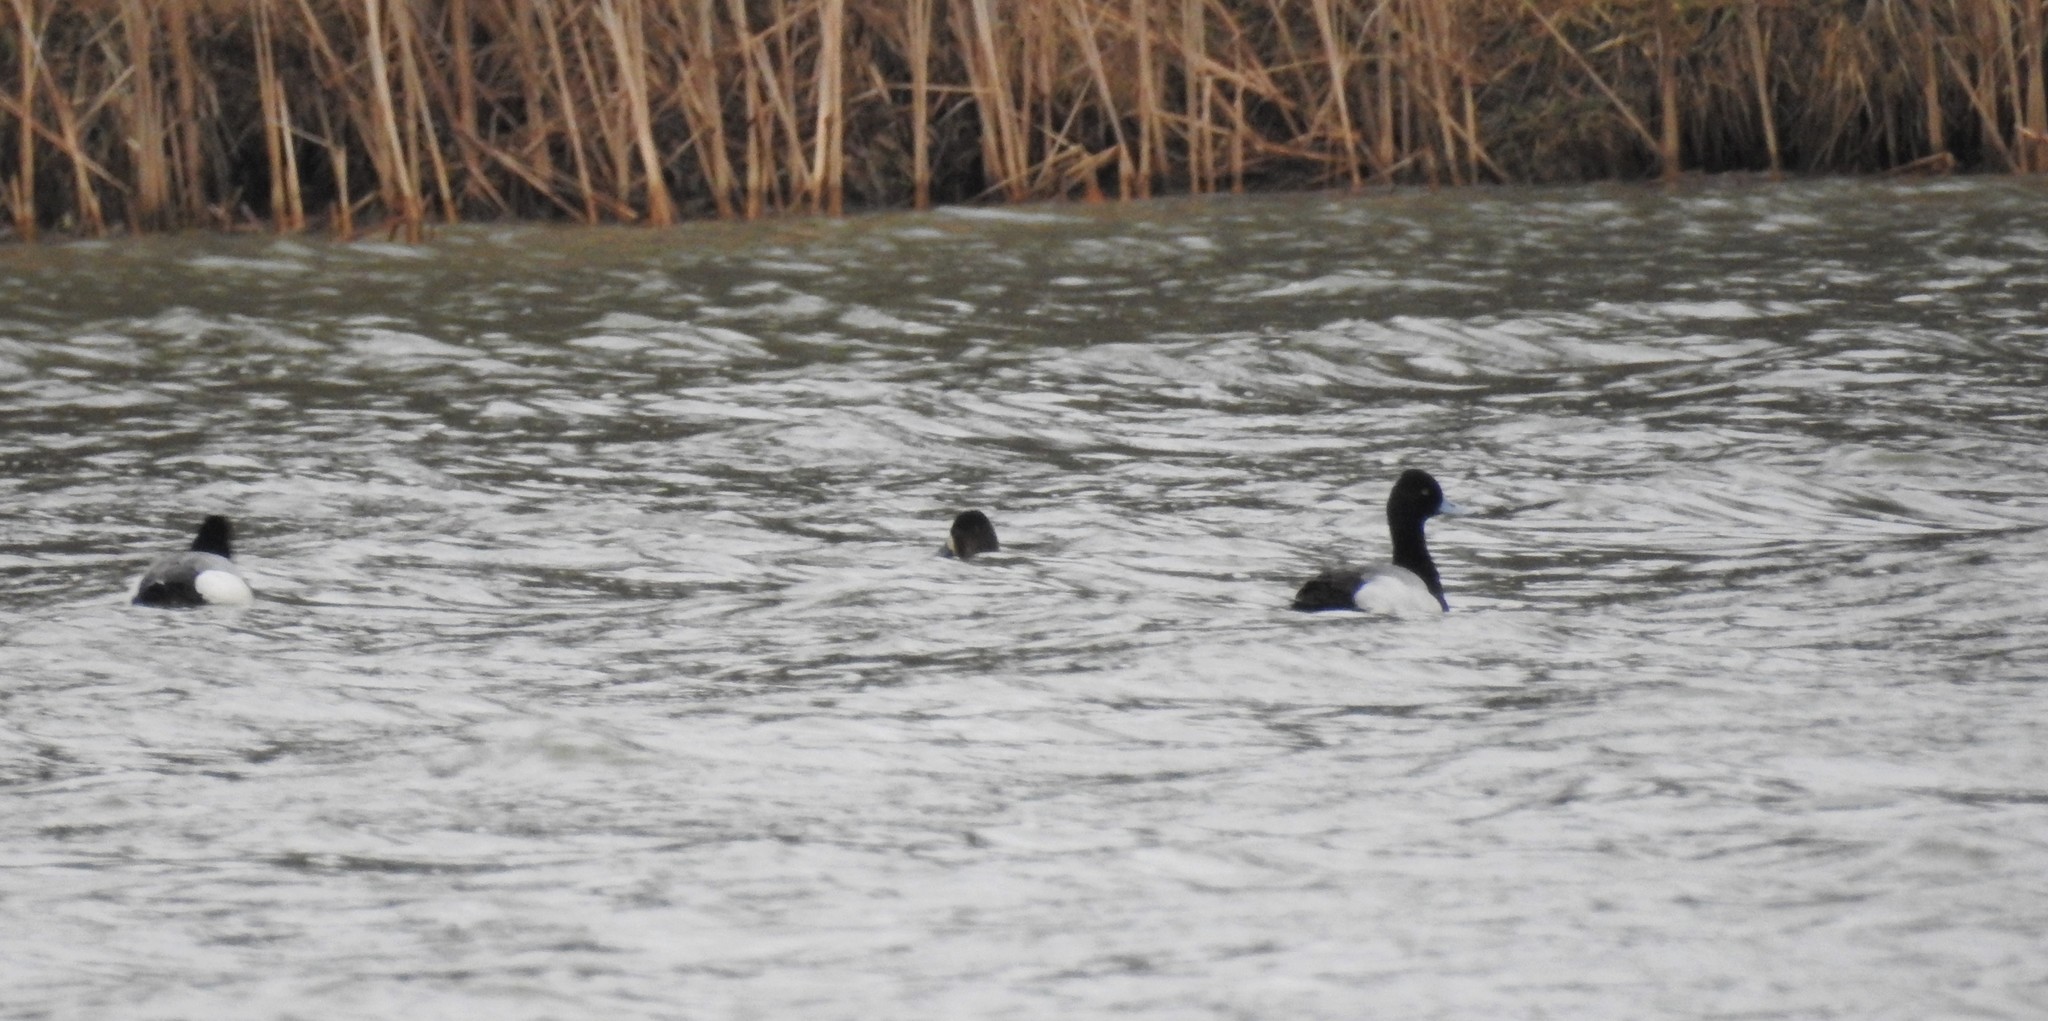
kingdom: Animalia
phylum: Chordata
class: Aves
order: Anseriformes
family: Anatidae
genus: Aythya
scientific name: Aythya affinis
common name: Lesser scaup
